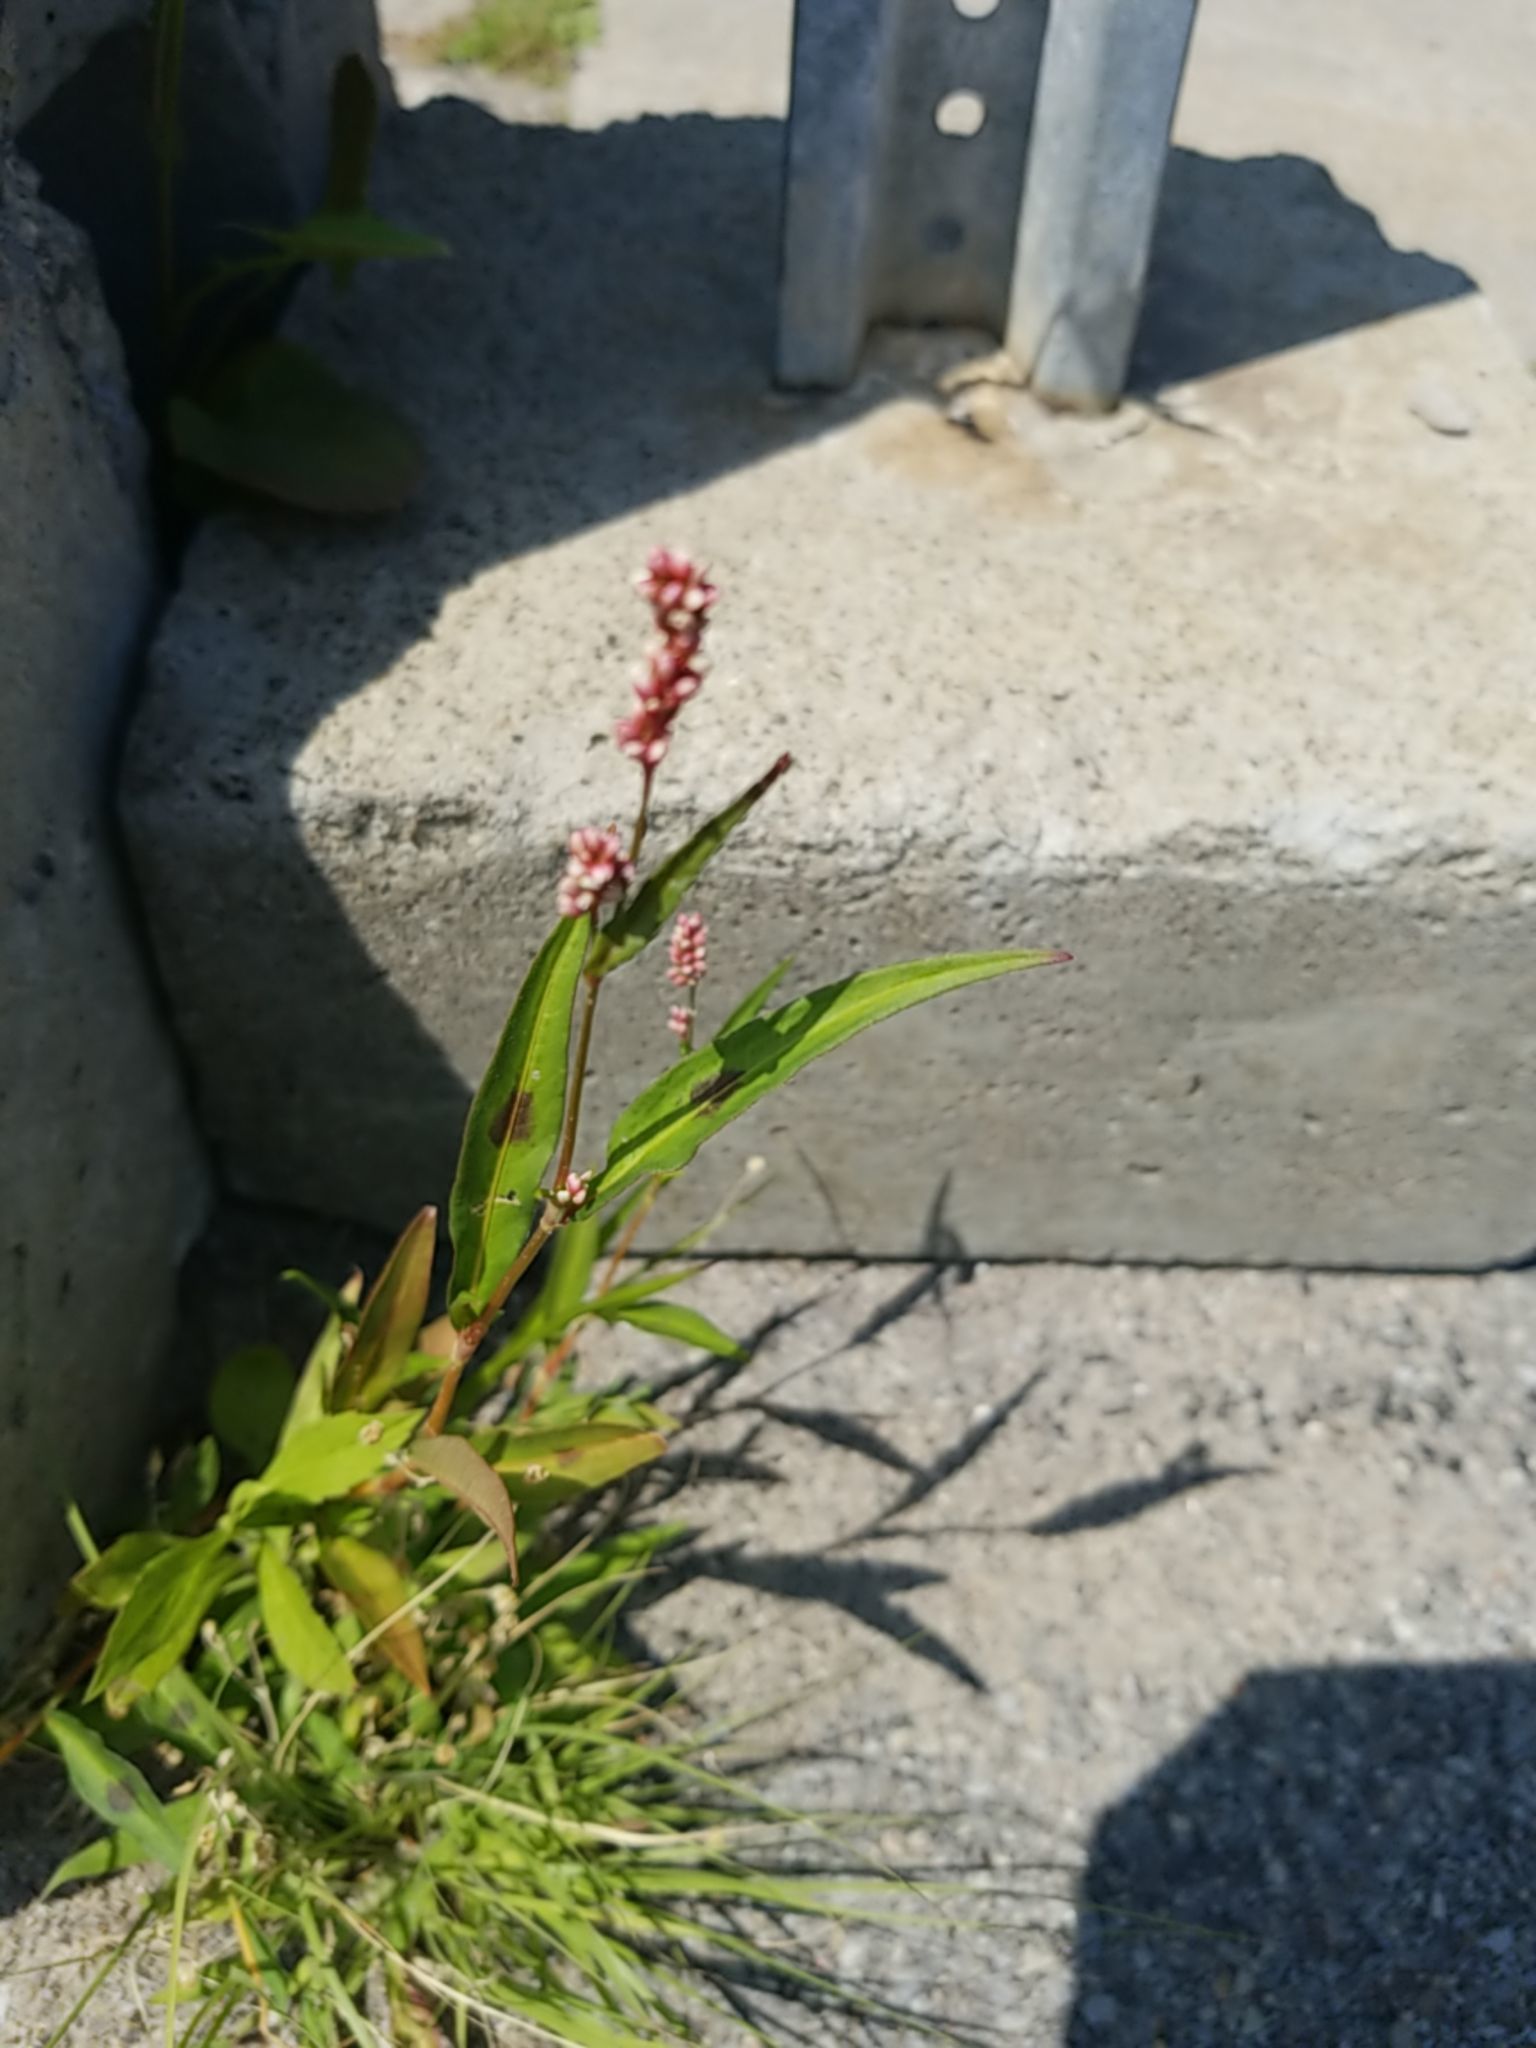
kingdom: Plantae
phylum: Tracheophyta
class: Magnoliopsida
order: Caryophyllales
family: Polygonaceae
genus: Persicaria
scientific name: Persicaria maculosa
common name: Redshank
